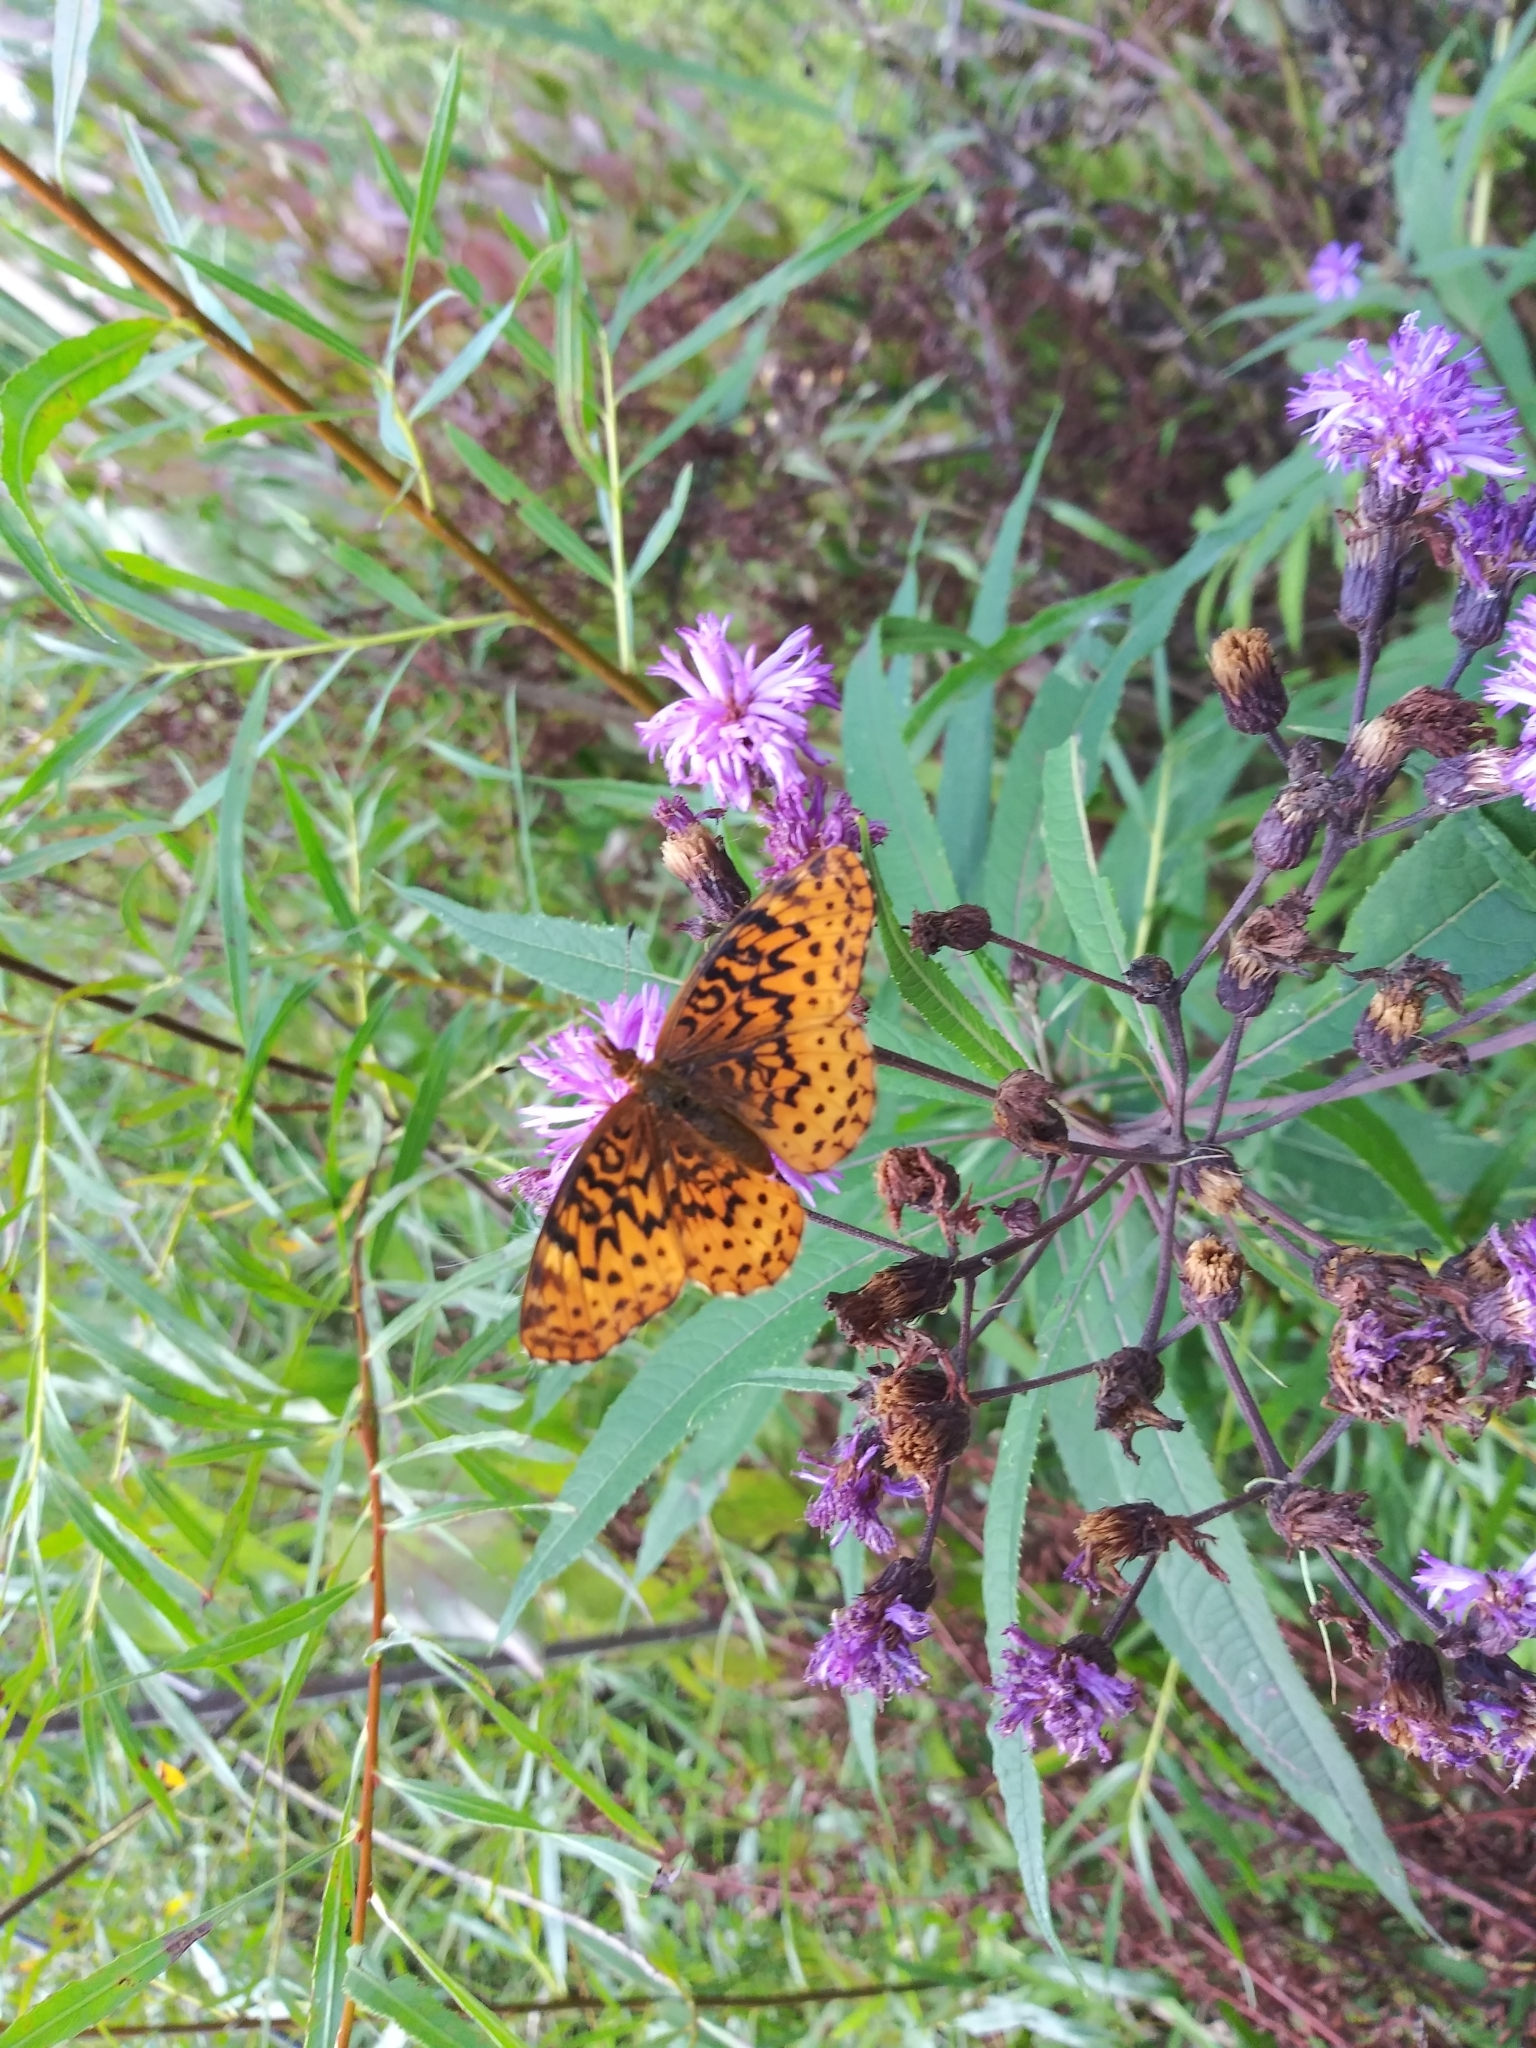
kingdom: Animalia
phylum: Arthropoda
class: Insecta
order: Lepidoptera
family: Nymphalidae
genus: Clossiana
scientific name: Clossiana toddi
